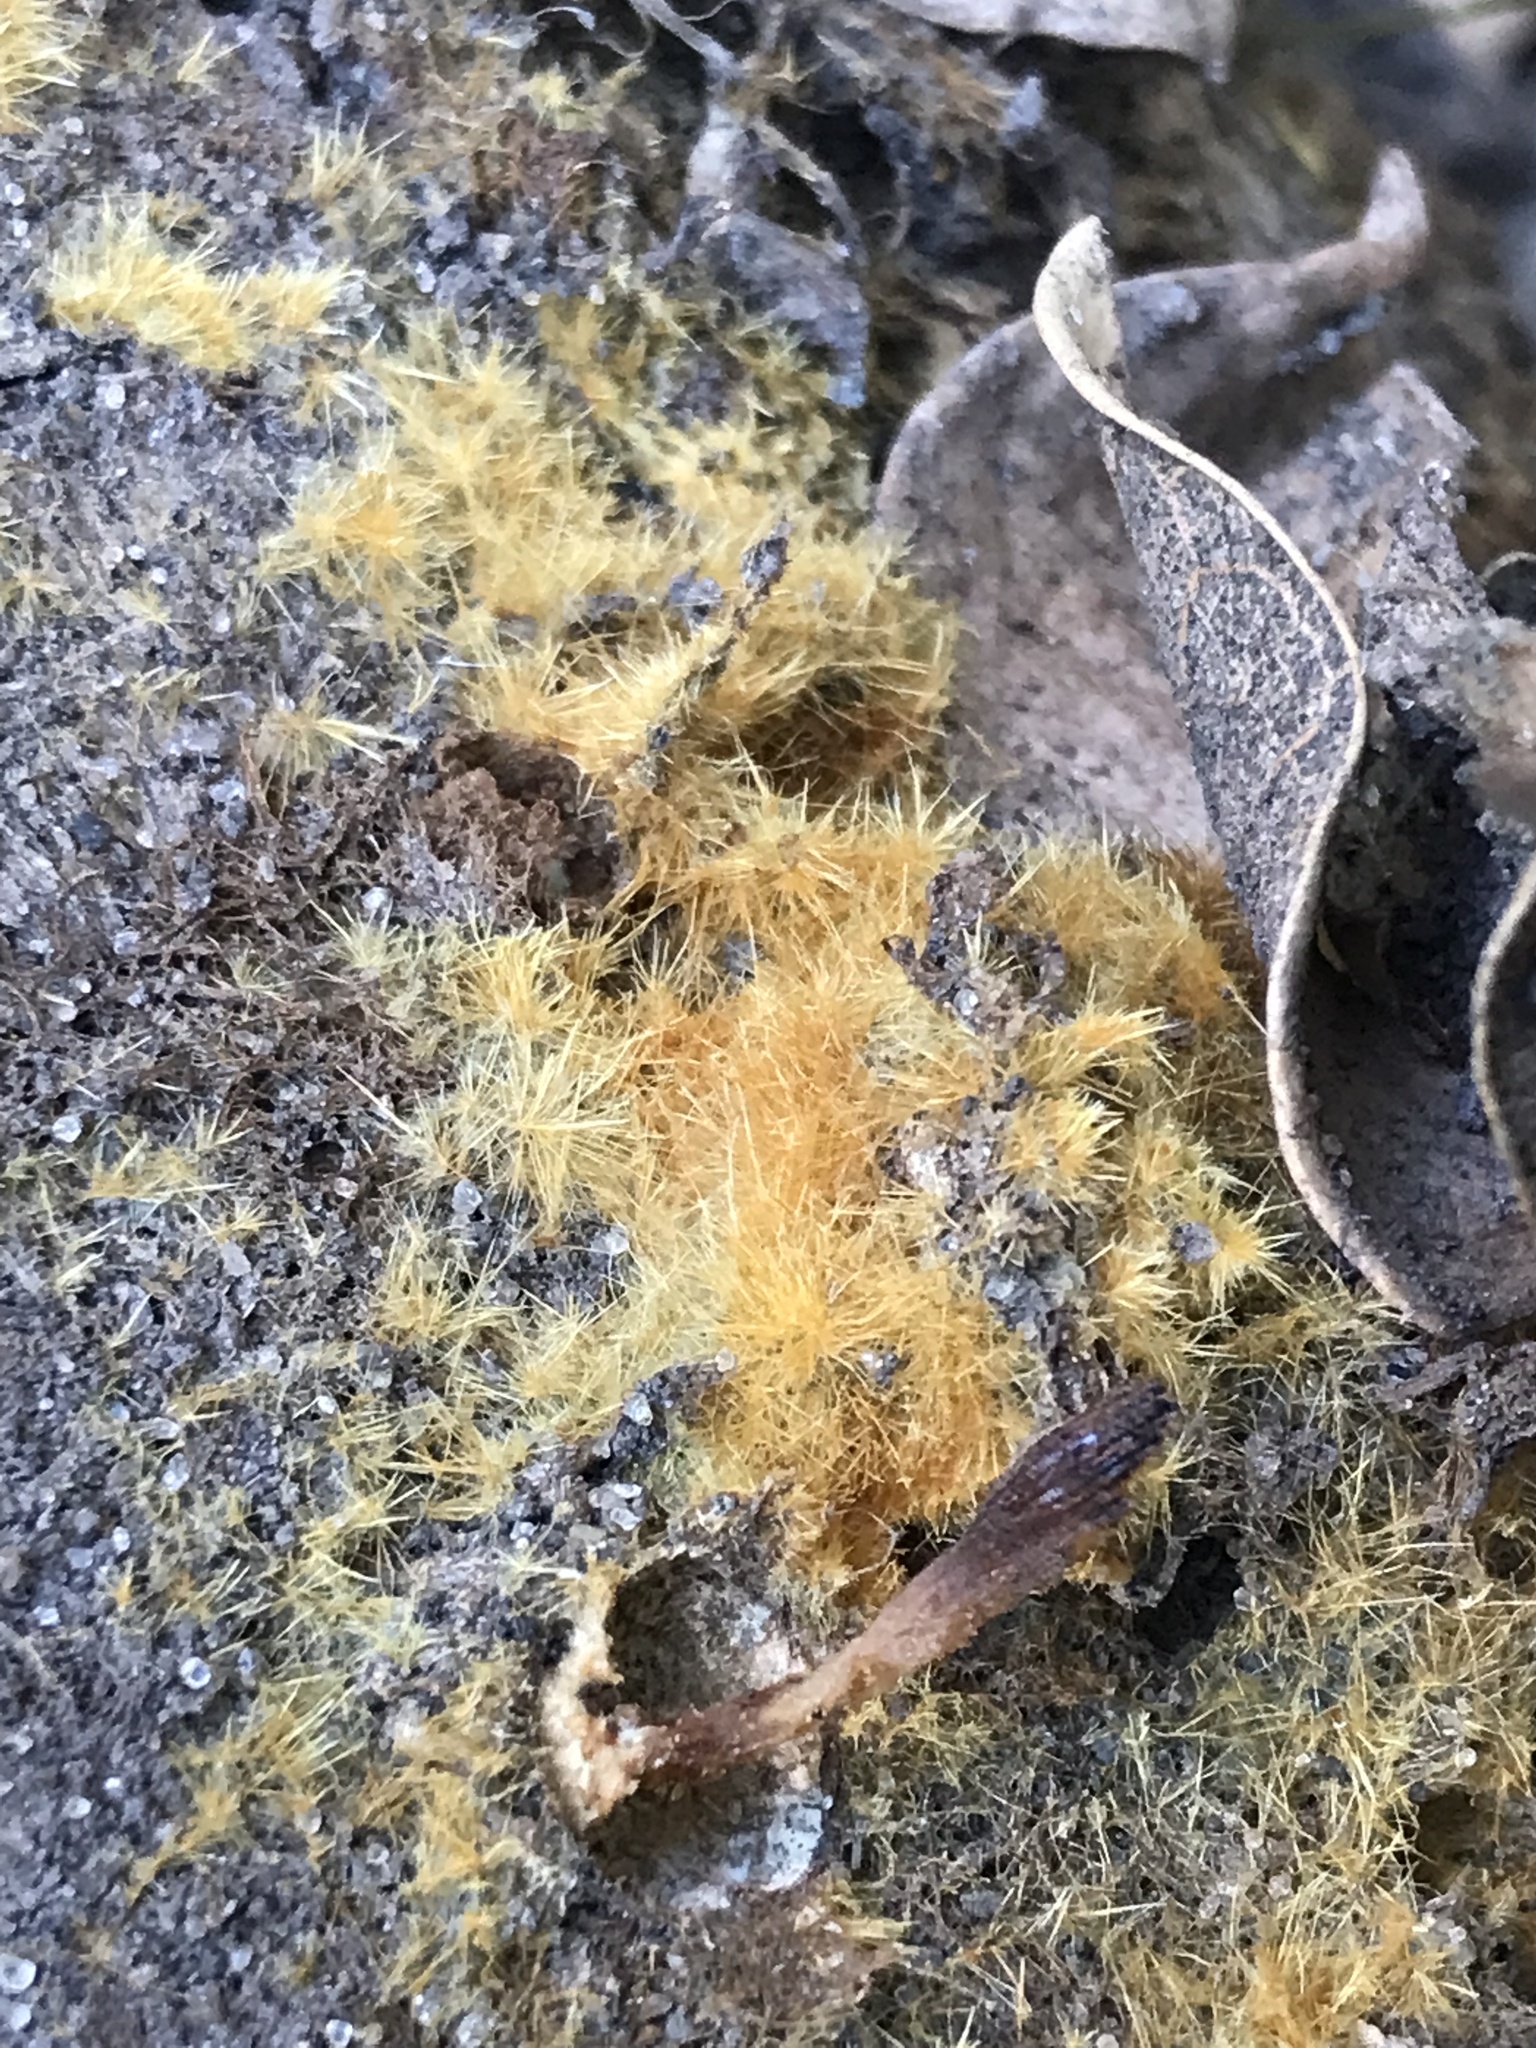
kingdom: Fungi
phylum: Basidiomycota
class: Agaricomycetes
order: Agaricales
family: Psathyrellaceae
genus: Coprinellus
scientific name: Coprinellus domesticus
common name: Firerug inkcap
